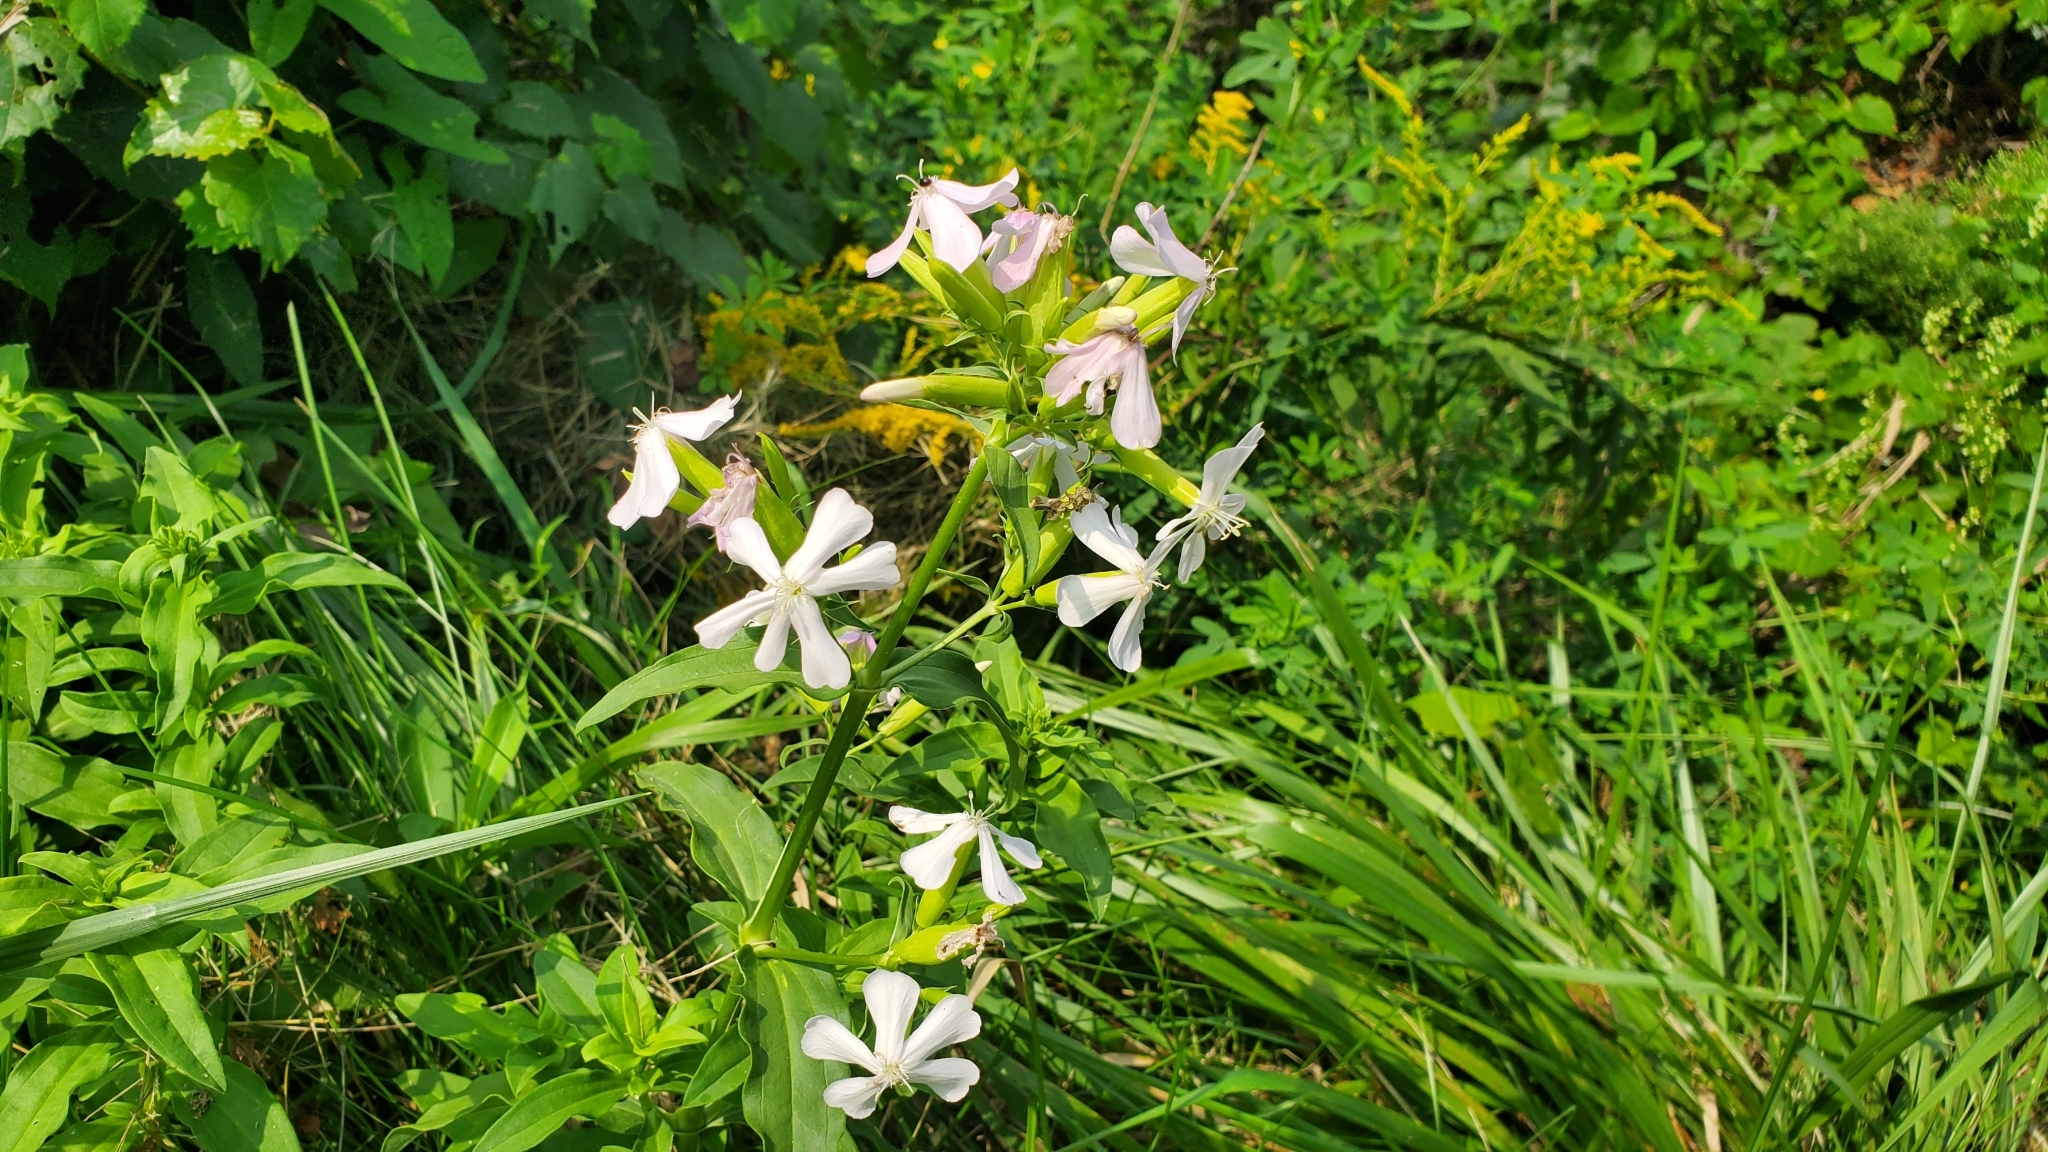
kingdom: Plantae
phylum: Tracheophyta
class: Magnoliopsida
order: Caryophyllales
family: Caryophyllaceae
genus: Saponaria
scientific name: Saponaria officinalis
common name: Soapwort
